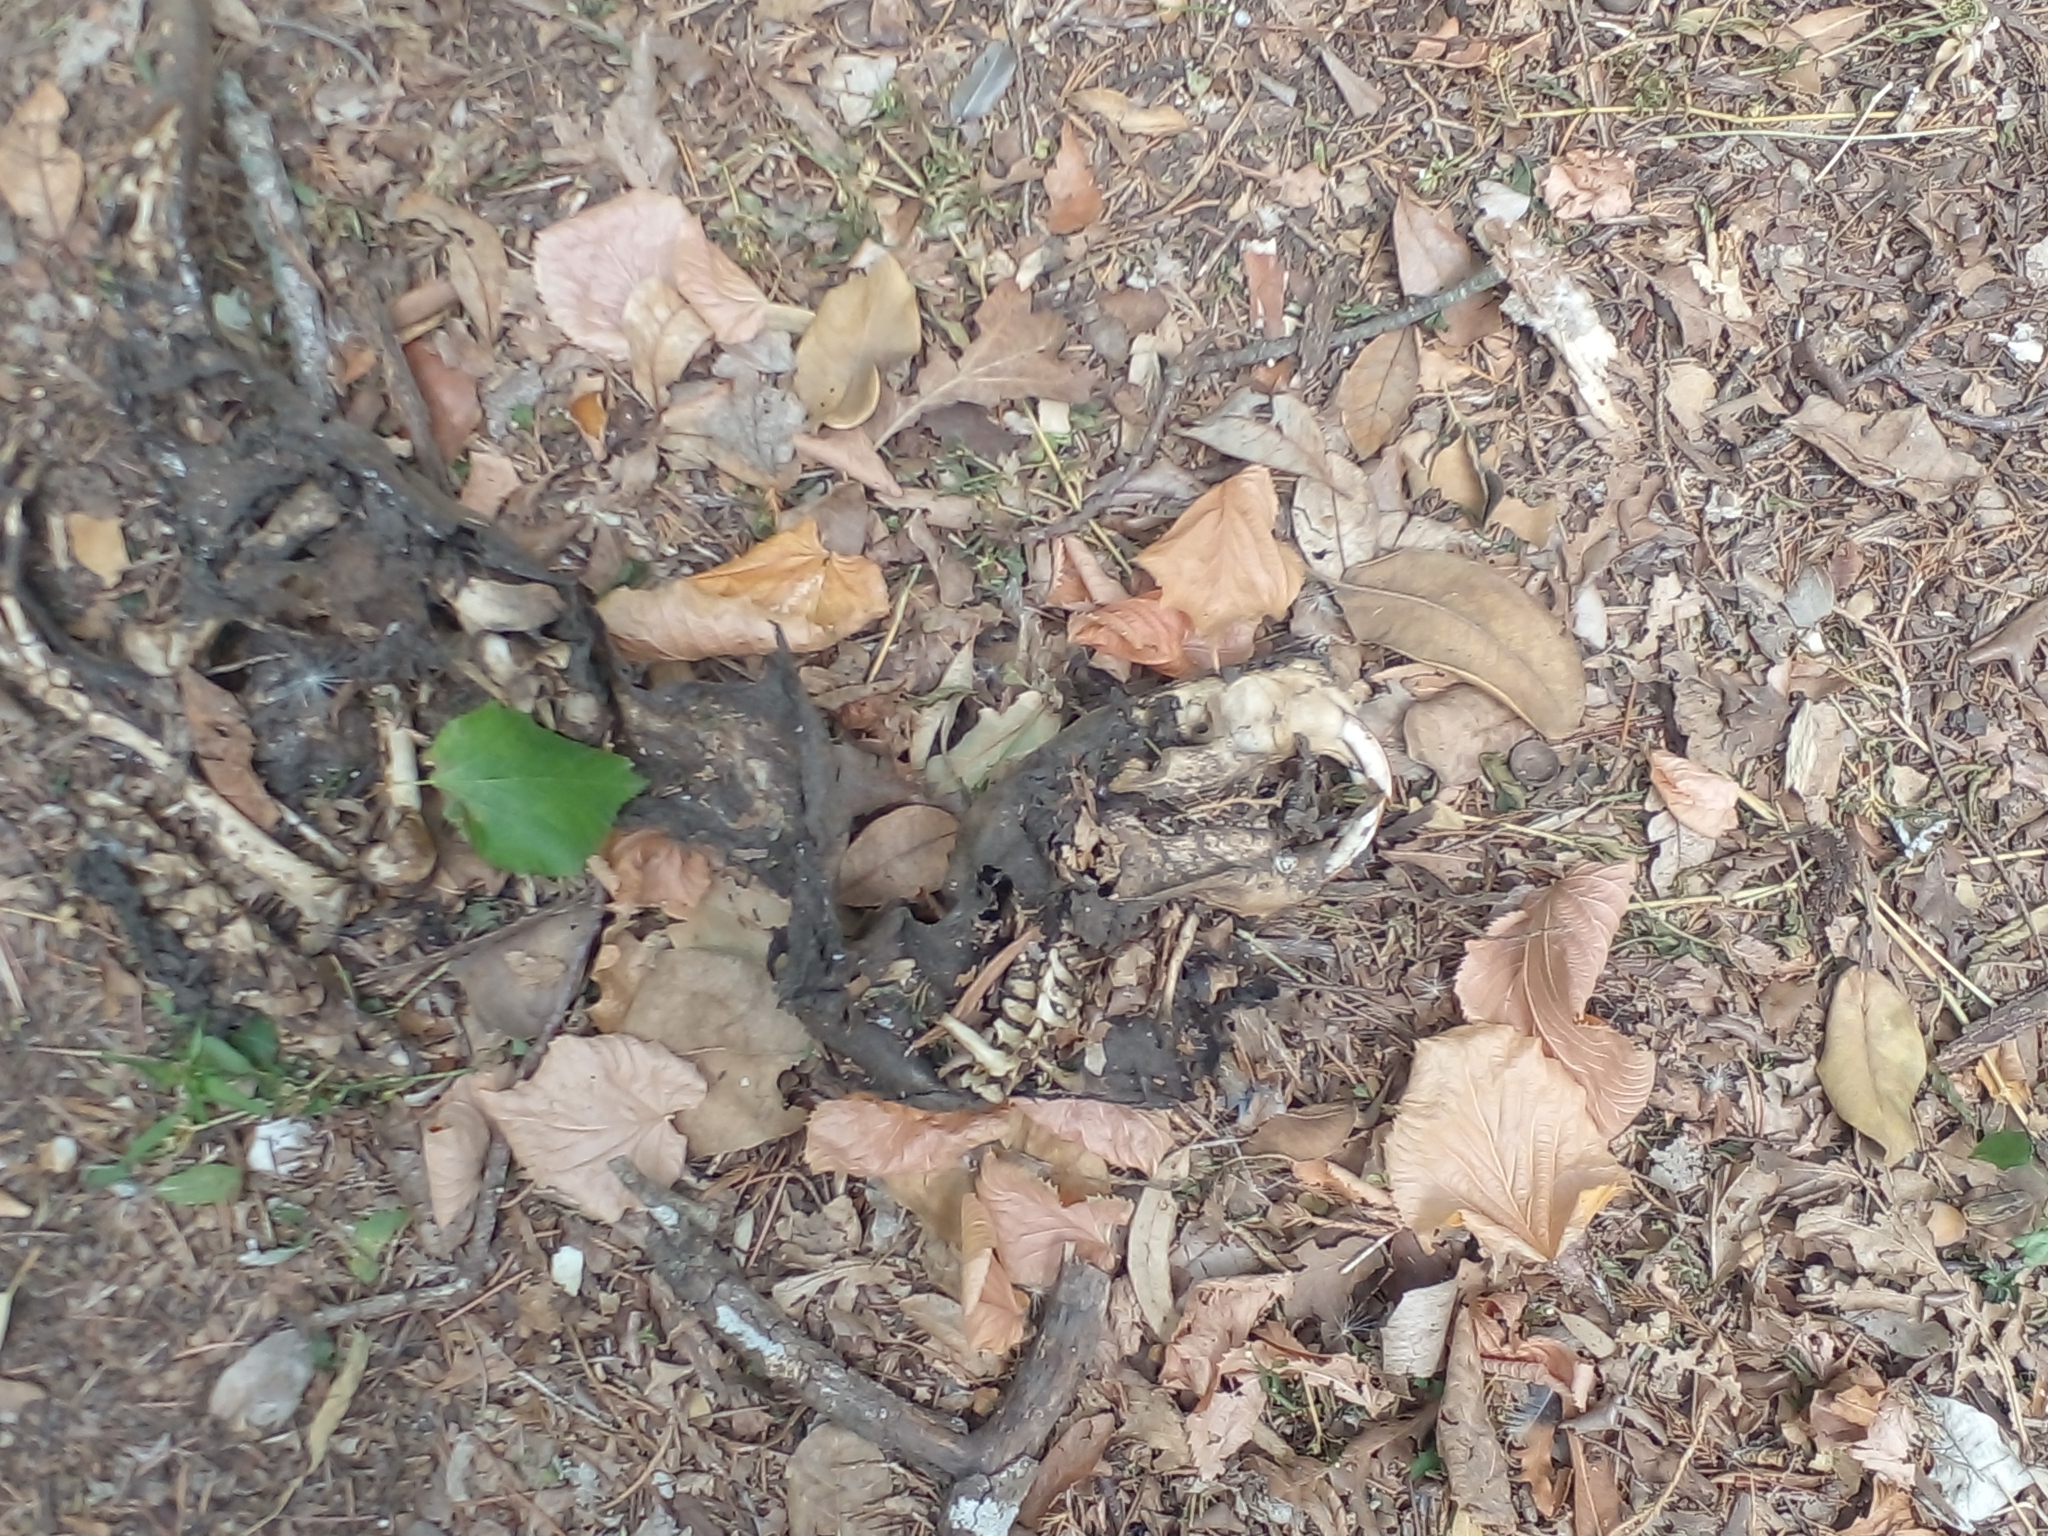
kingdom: Animalia
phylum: Chordata
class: Mammalia
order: Rodentia
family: Myocastoridae
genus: Myocastor
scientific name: Myocastor coypus
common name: Coypu
